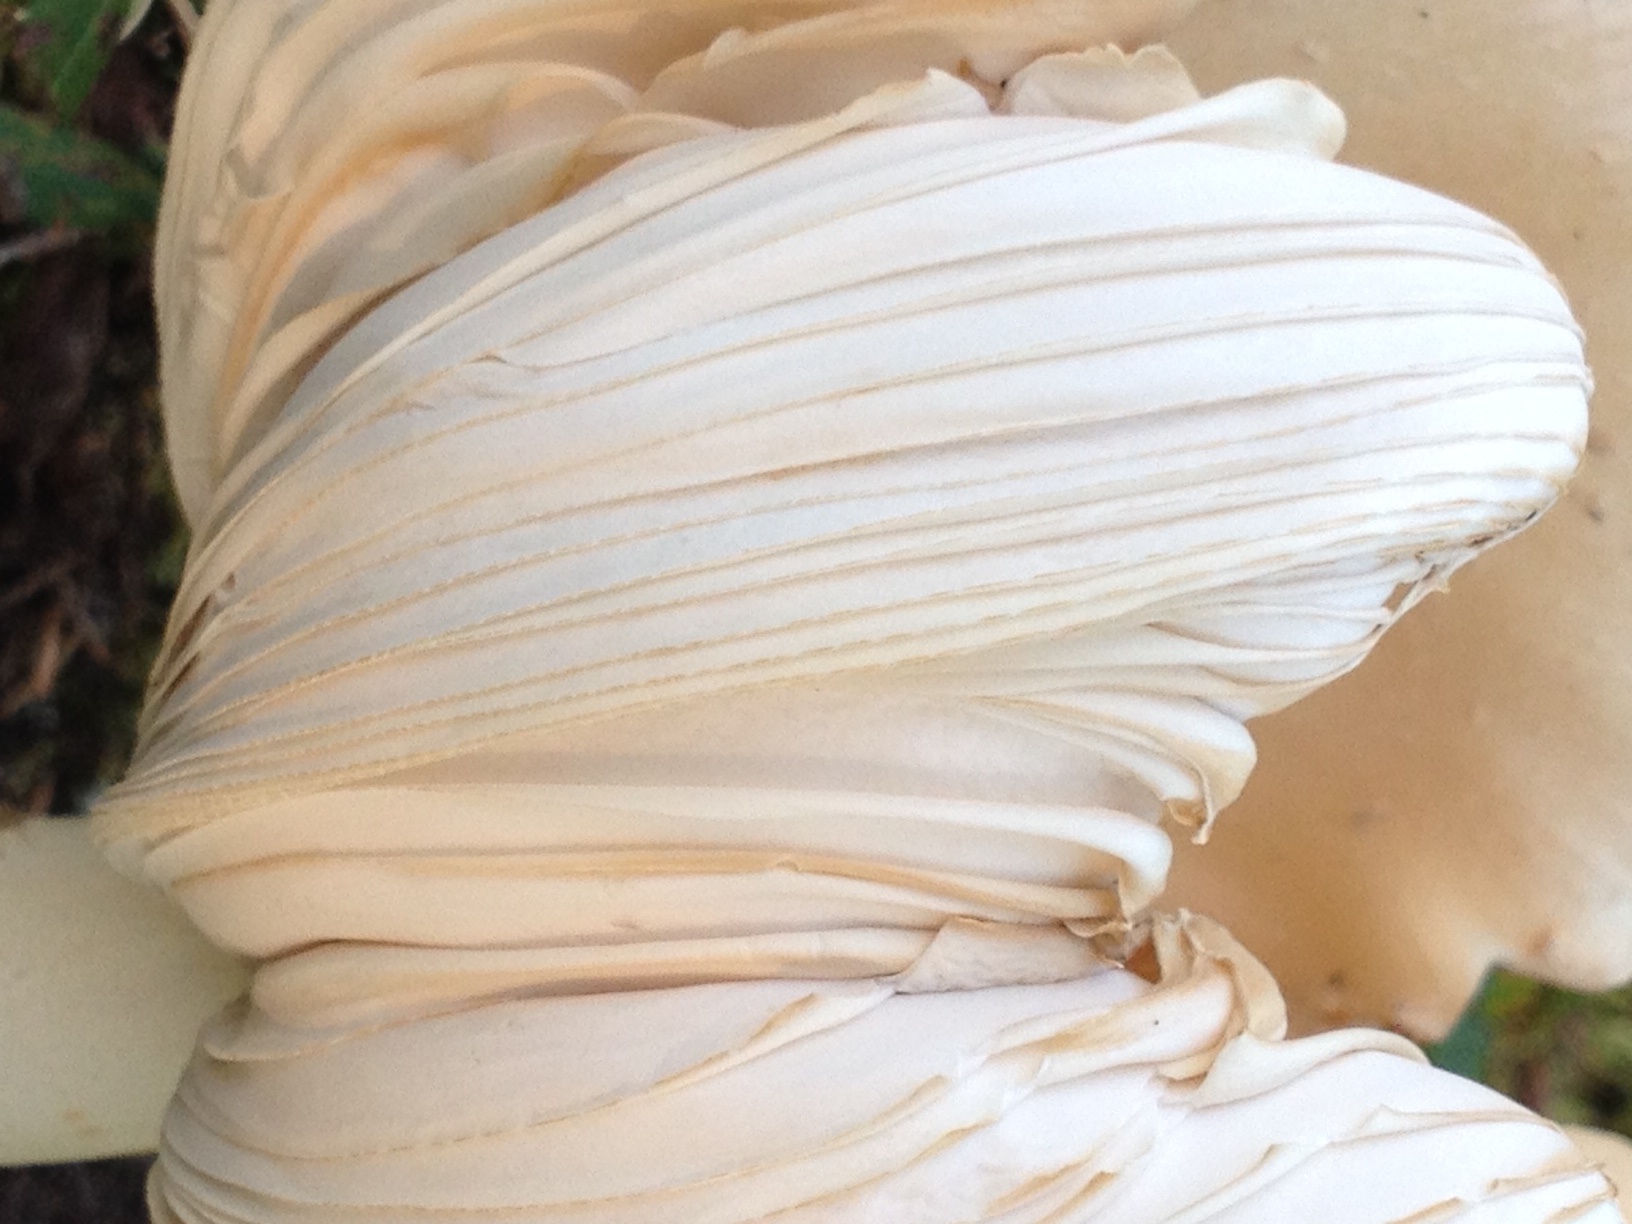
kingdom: Fungi
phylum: Basidiomycota
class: Agaricomycetes
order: Agaricales
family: Amanitaceae
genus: Amanita
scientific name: Amanita muscaria
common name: Fly agaric
